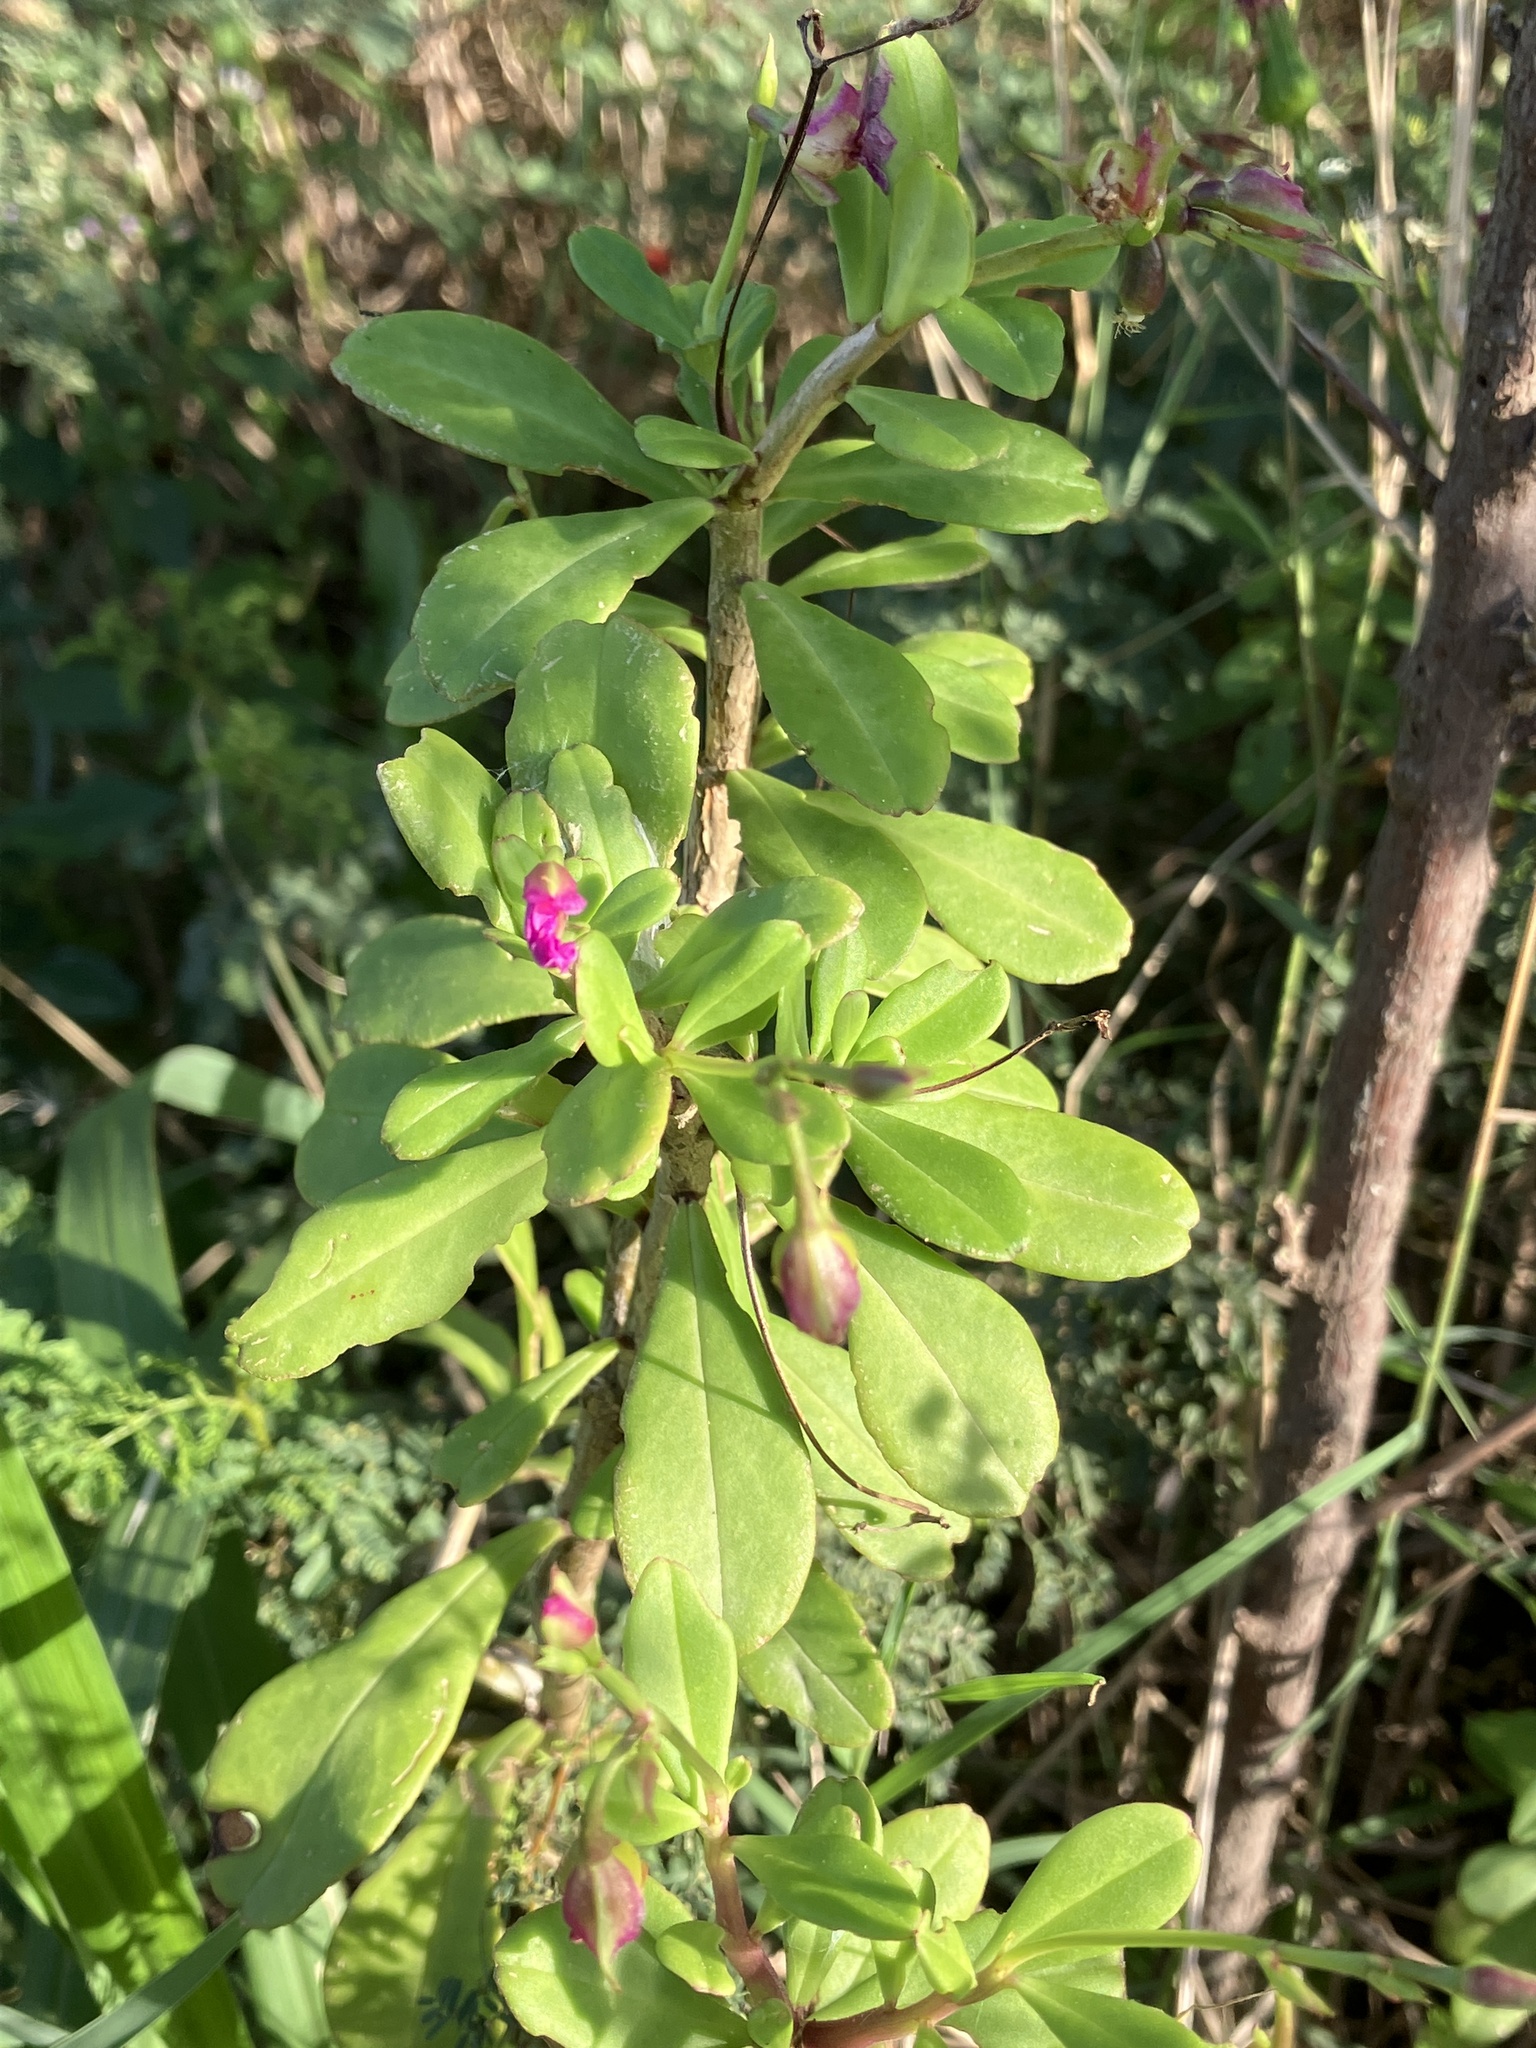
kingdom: Plantae
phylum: Tracheophyta
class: Magnoliopsida
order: Caryophyllales
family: Talinaceae
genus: Talinum
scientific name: Talinum fruticosum
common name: Verdolaga-francesa
